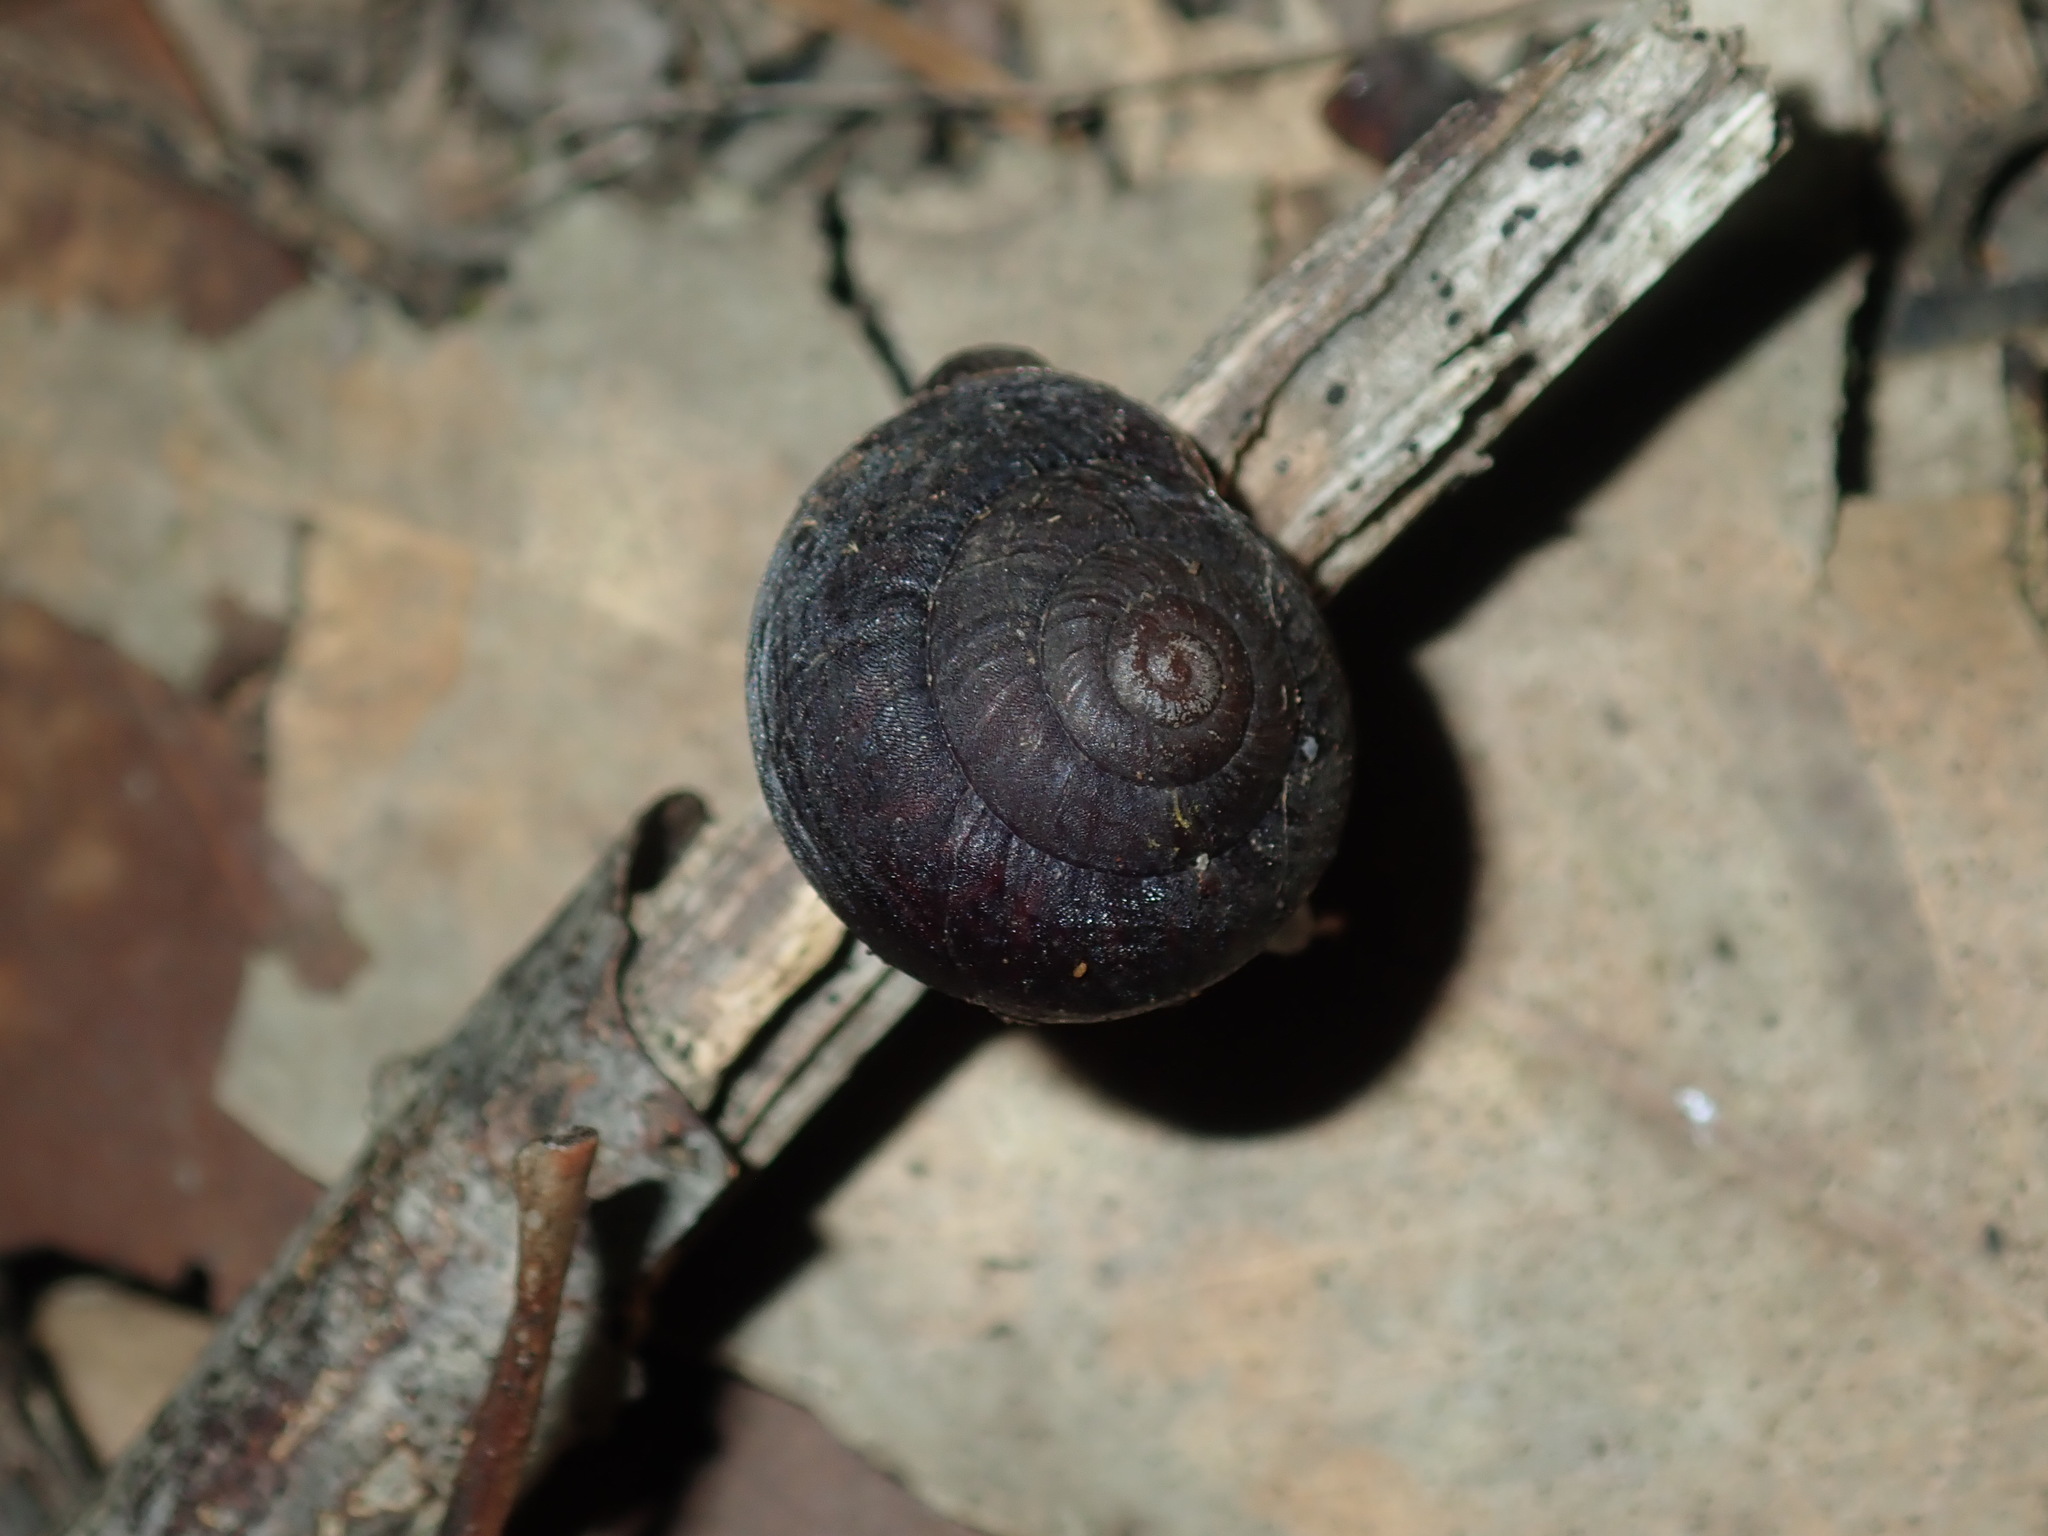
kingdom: Animalia
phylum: Mollusca
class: Gastropoda
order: Stylommatophora
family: Camaenidae
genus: Sauroconcha
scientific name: Sauroconcha sheai
